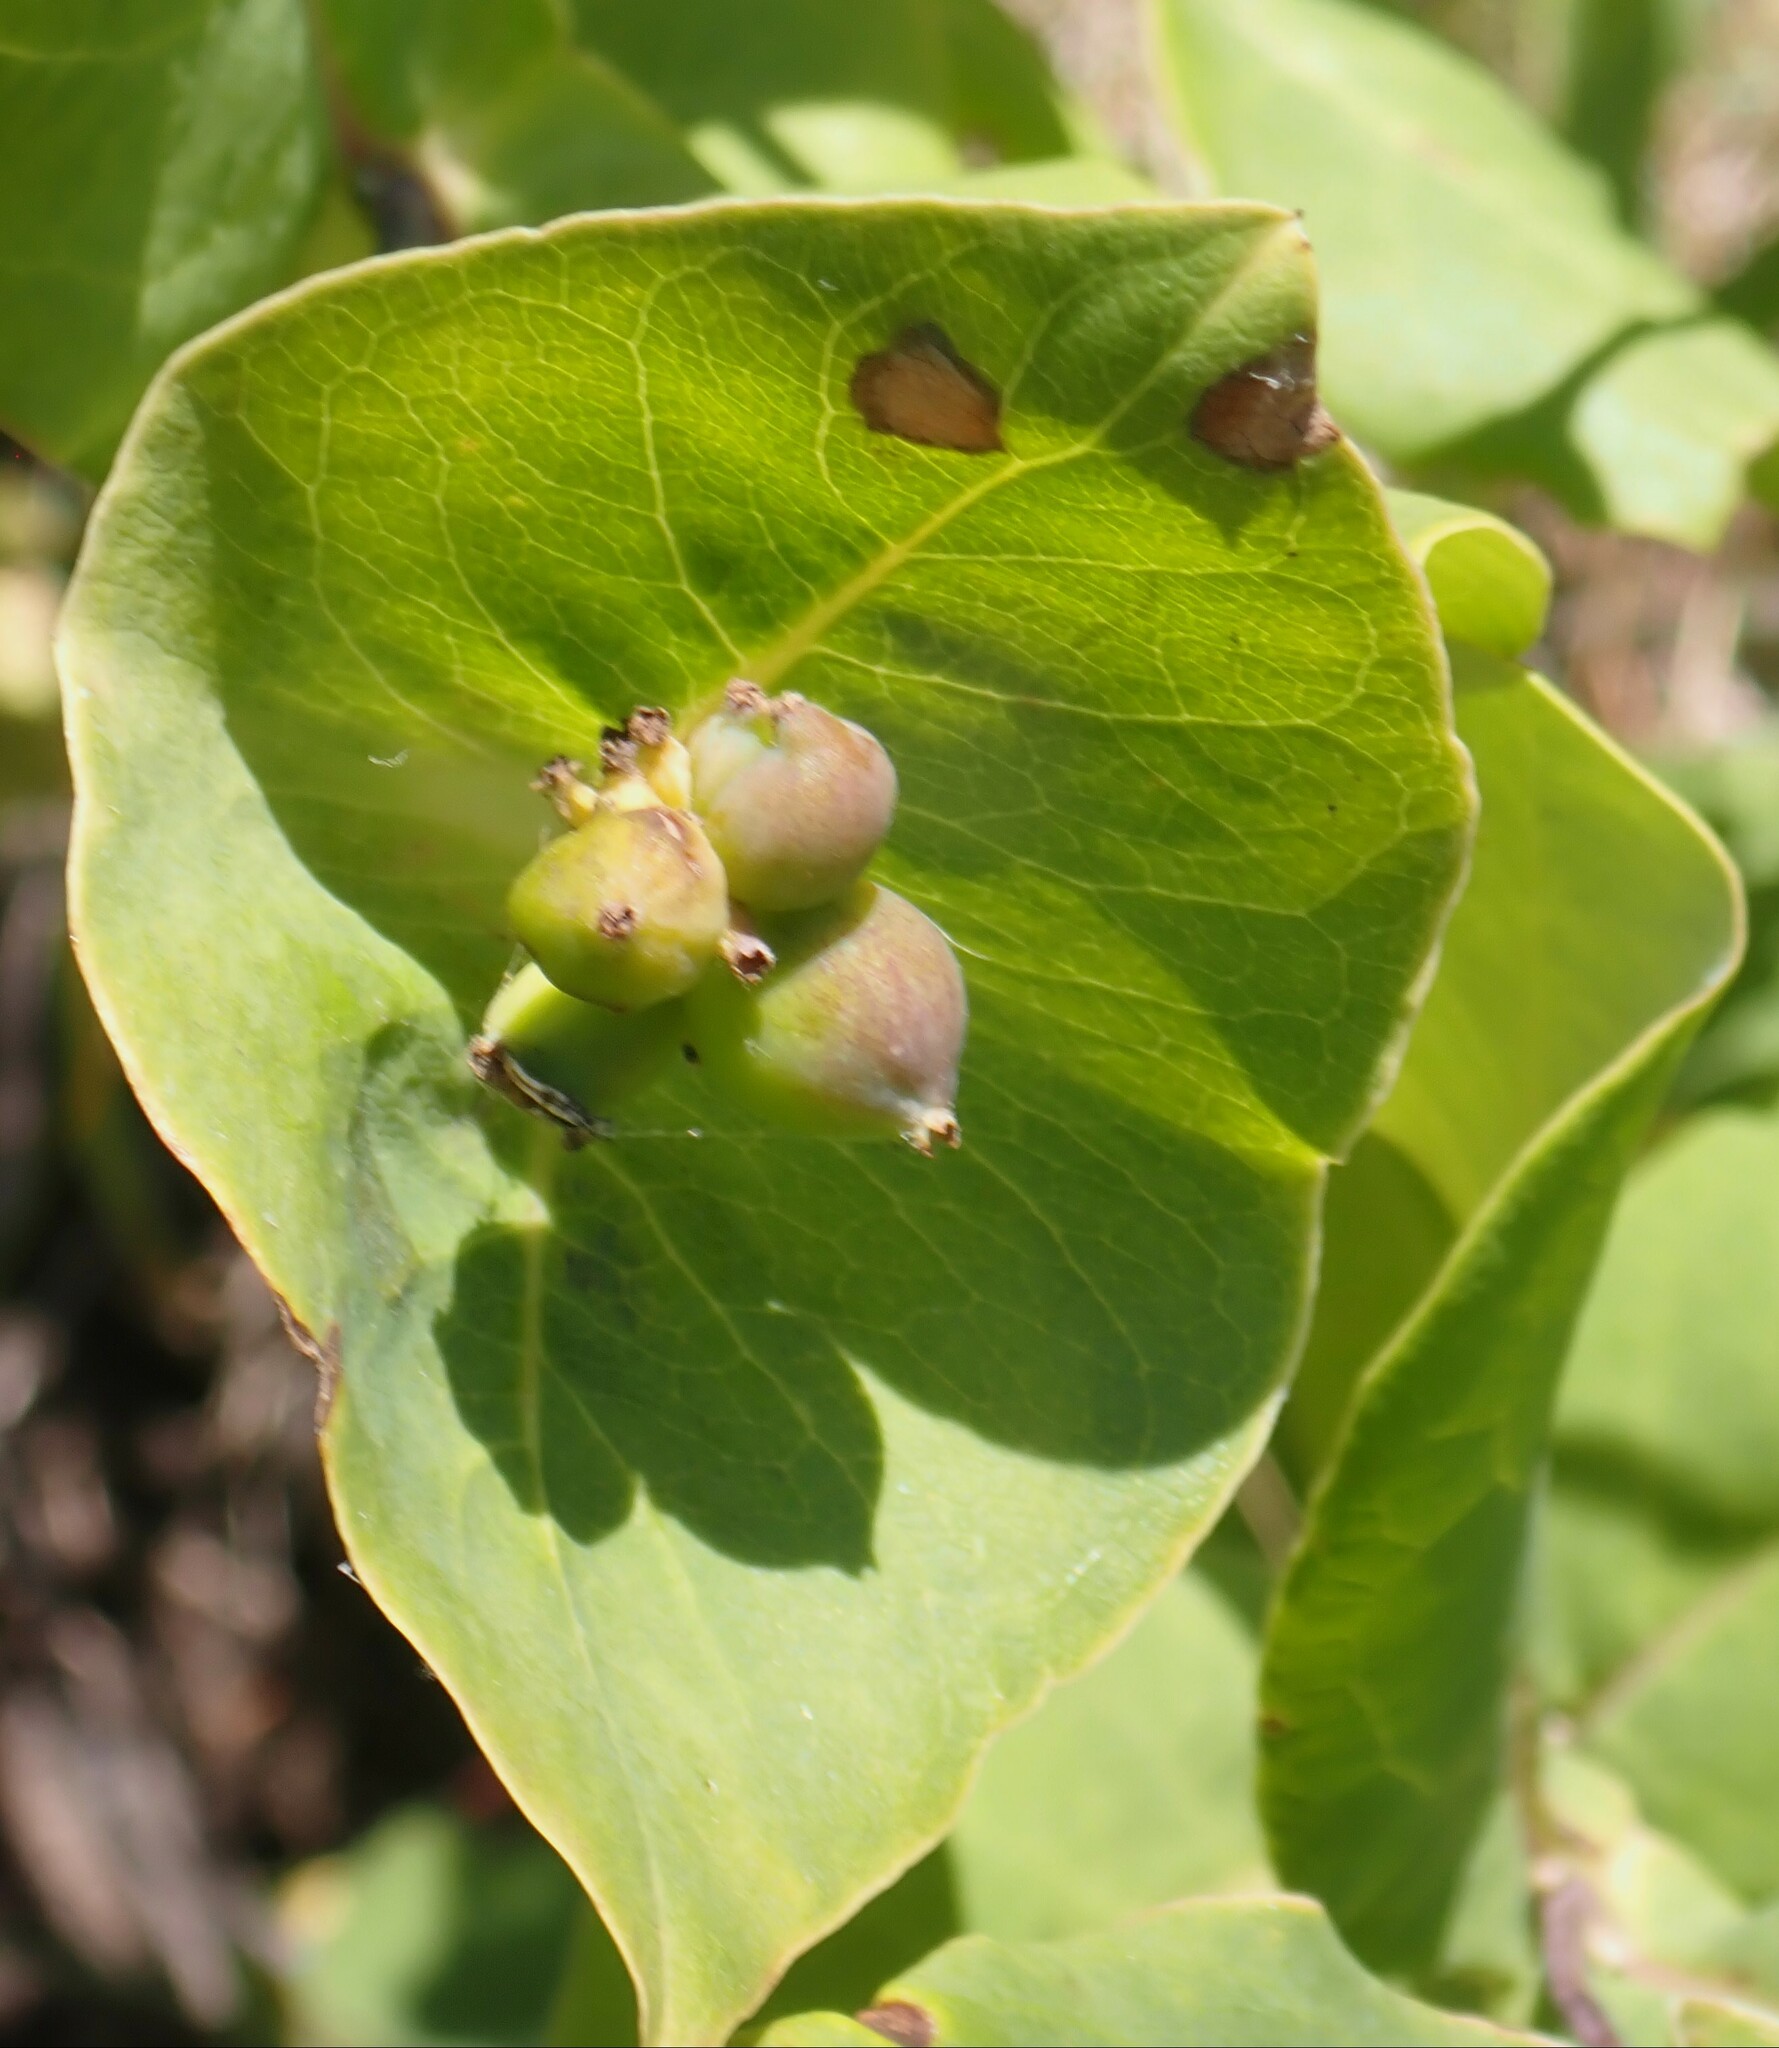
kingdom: Plantae
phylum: Tracheophyta
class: Magnoliopsida
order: Dipsacales
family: Caprifoliaceae
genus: Lonicera
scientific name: Lonicera dioica
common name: Limber honeysuckle
